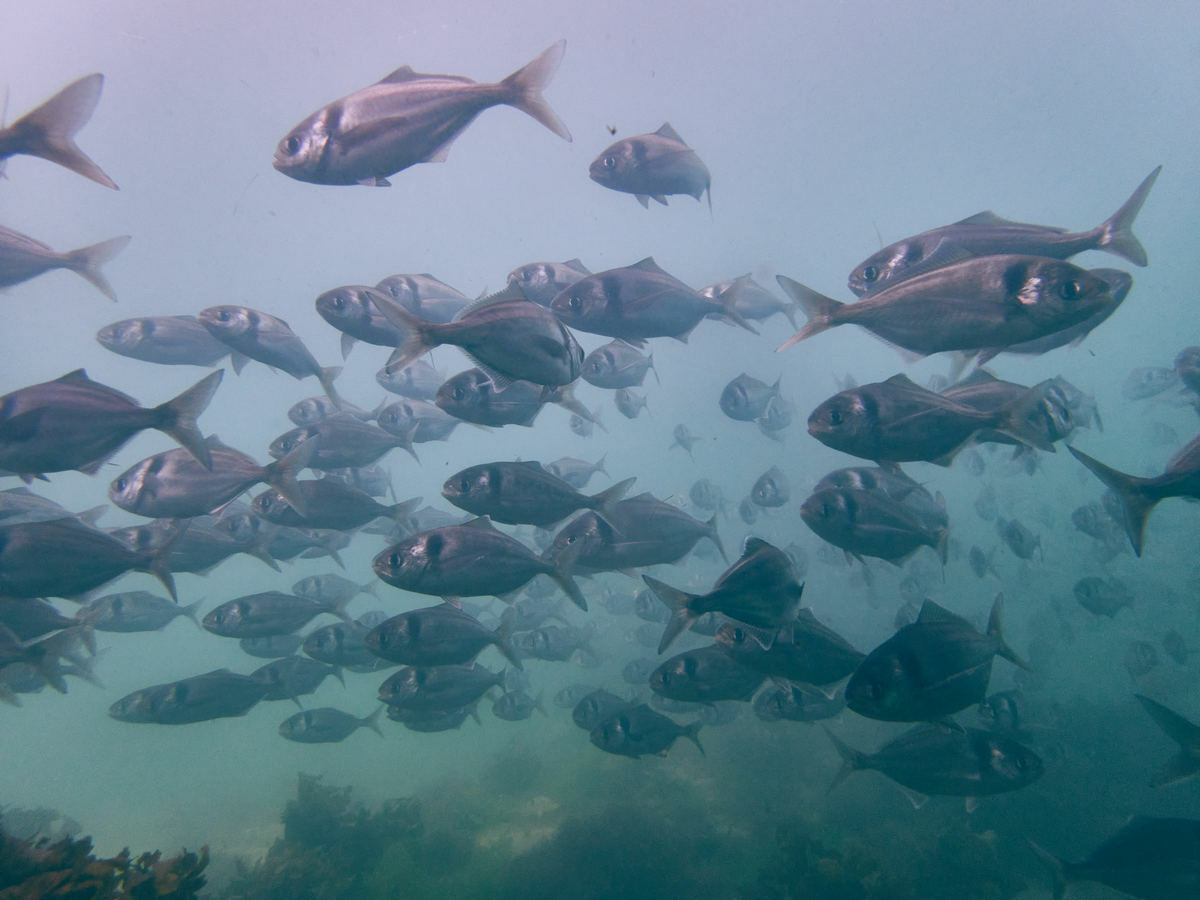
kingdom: Animalia
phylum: Chordata
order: Perciformes
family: Centrolophidae
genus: Seriolella
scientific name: Seriolella brama
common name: Blue warehou
